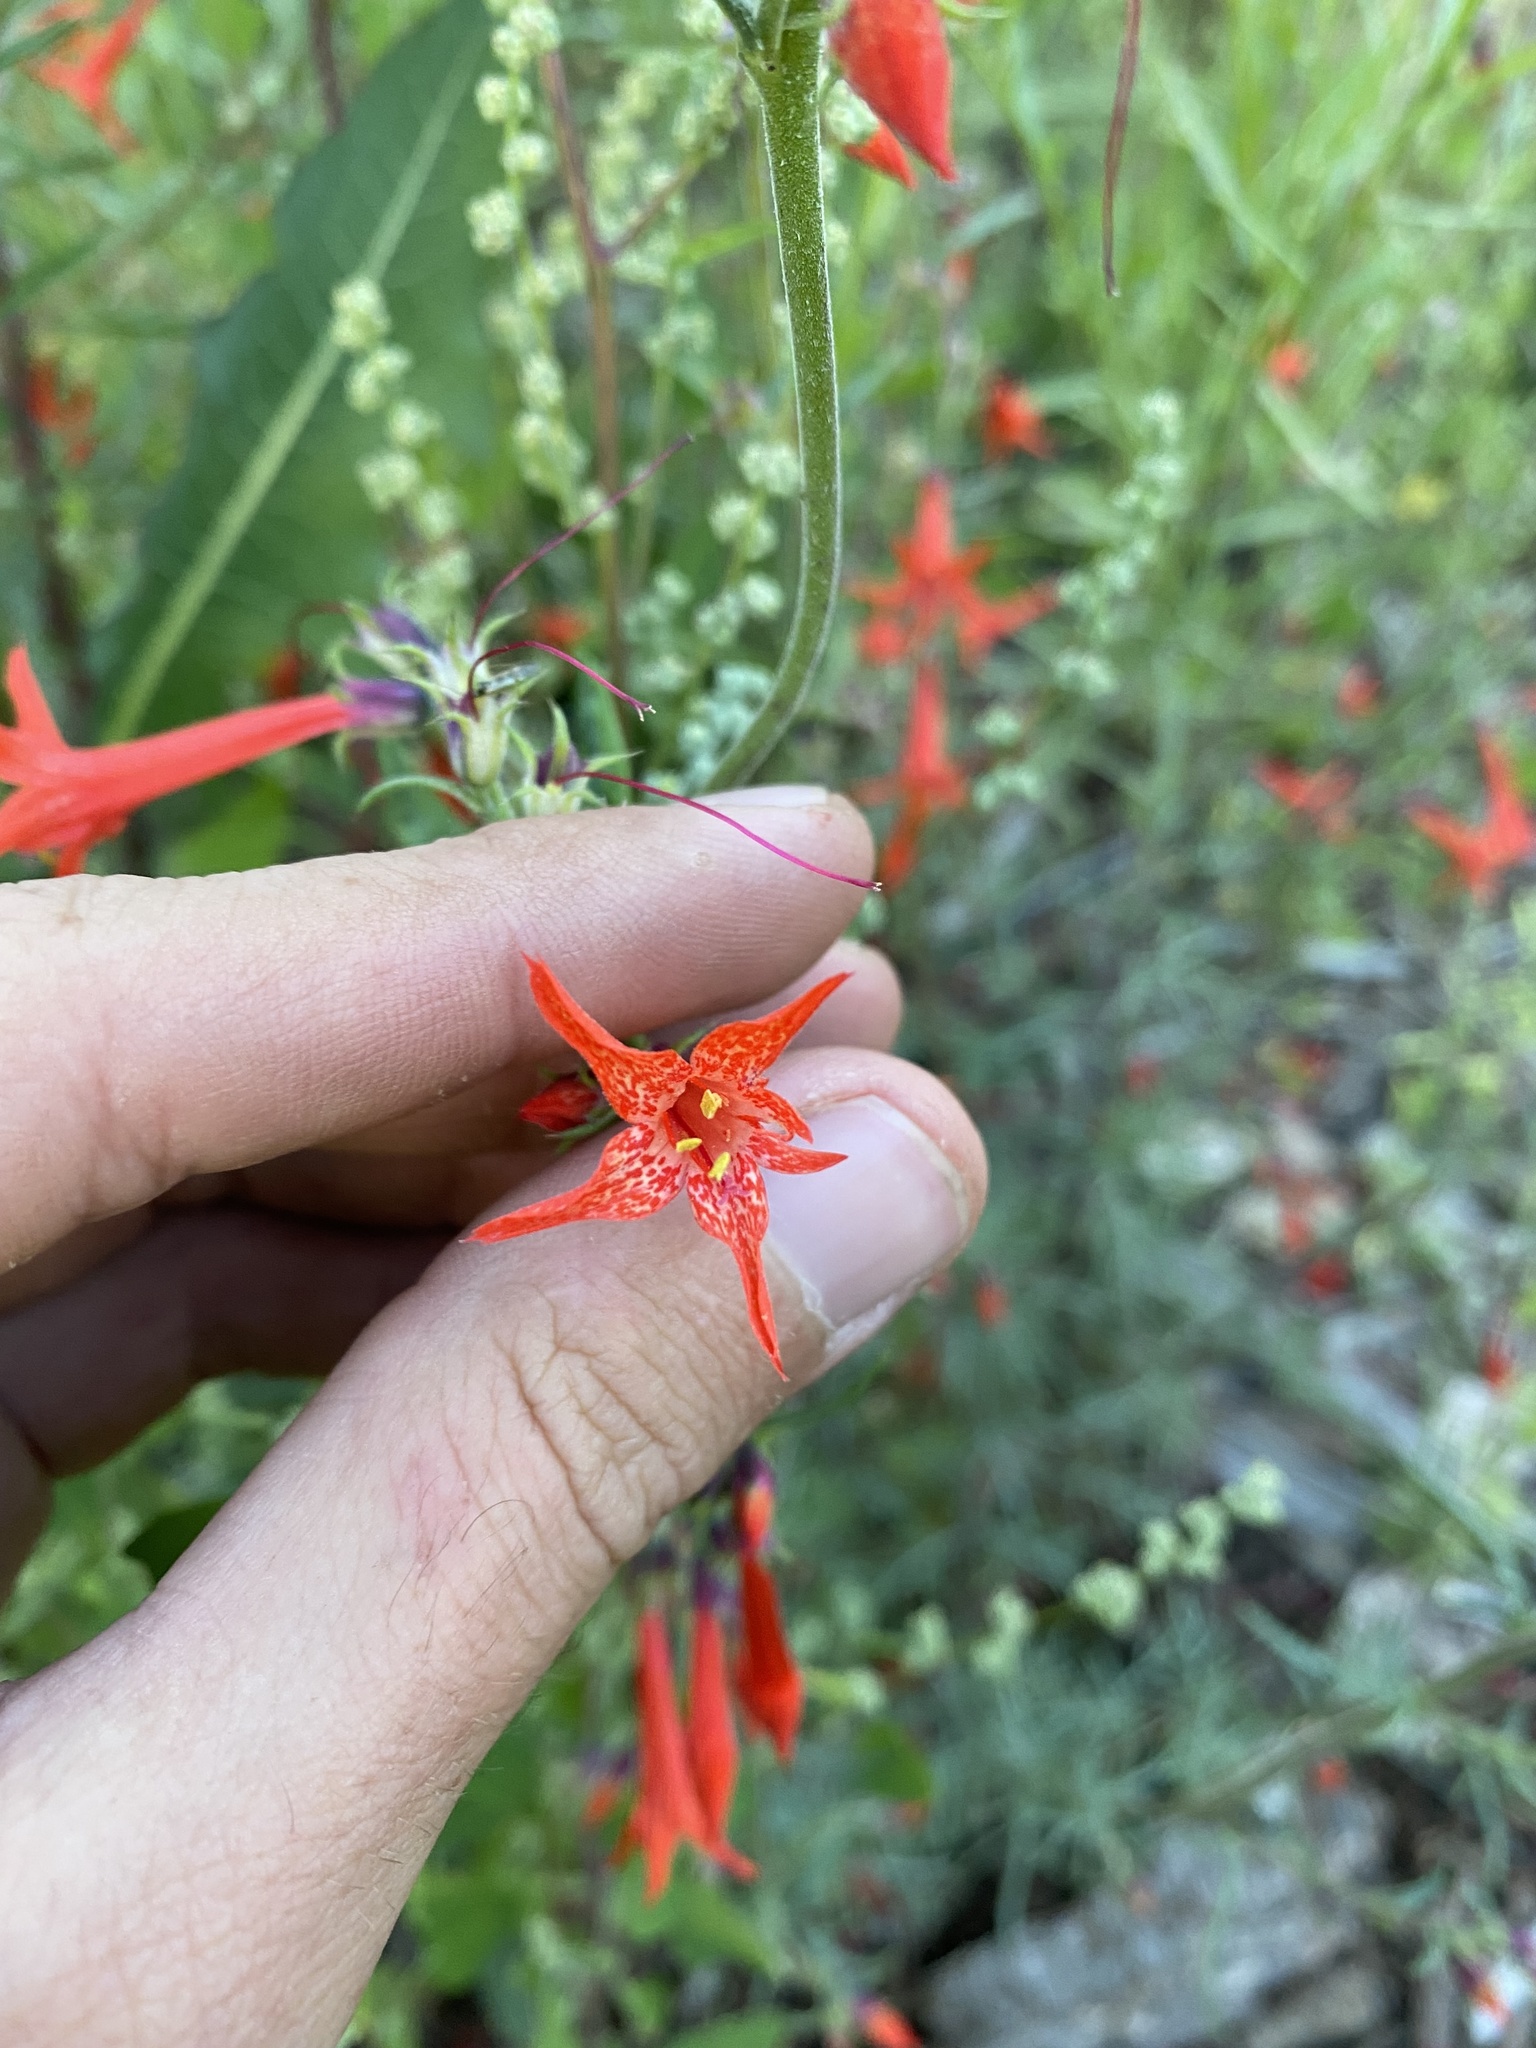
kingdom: Plantae
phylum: Tracheophyta
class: Magnoliopsida
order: Ericales
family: Polemoniaceae
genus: Ipomopsis
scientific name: Ipomopsis aggregata
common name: Scarlet gilia
